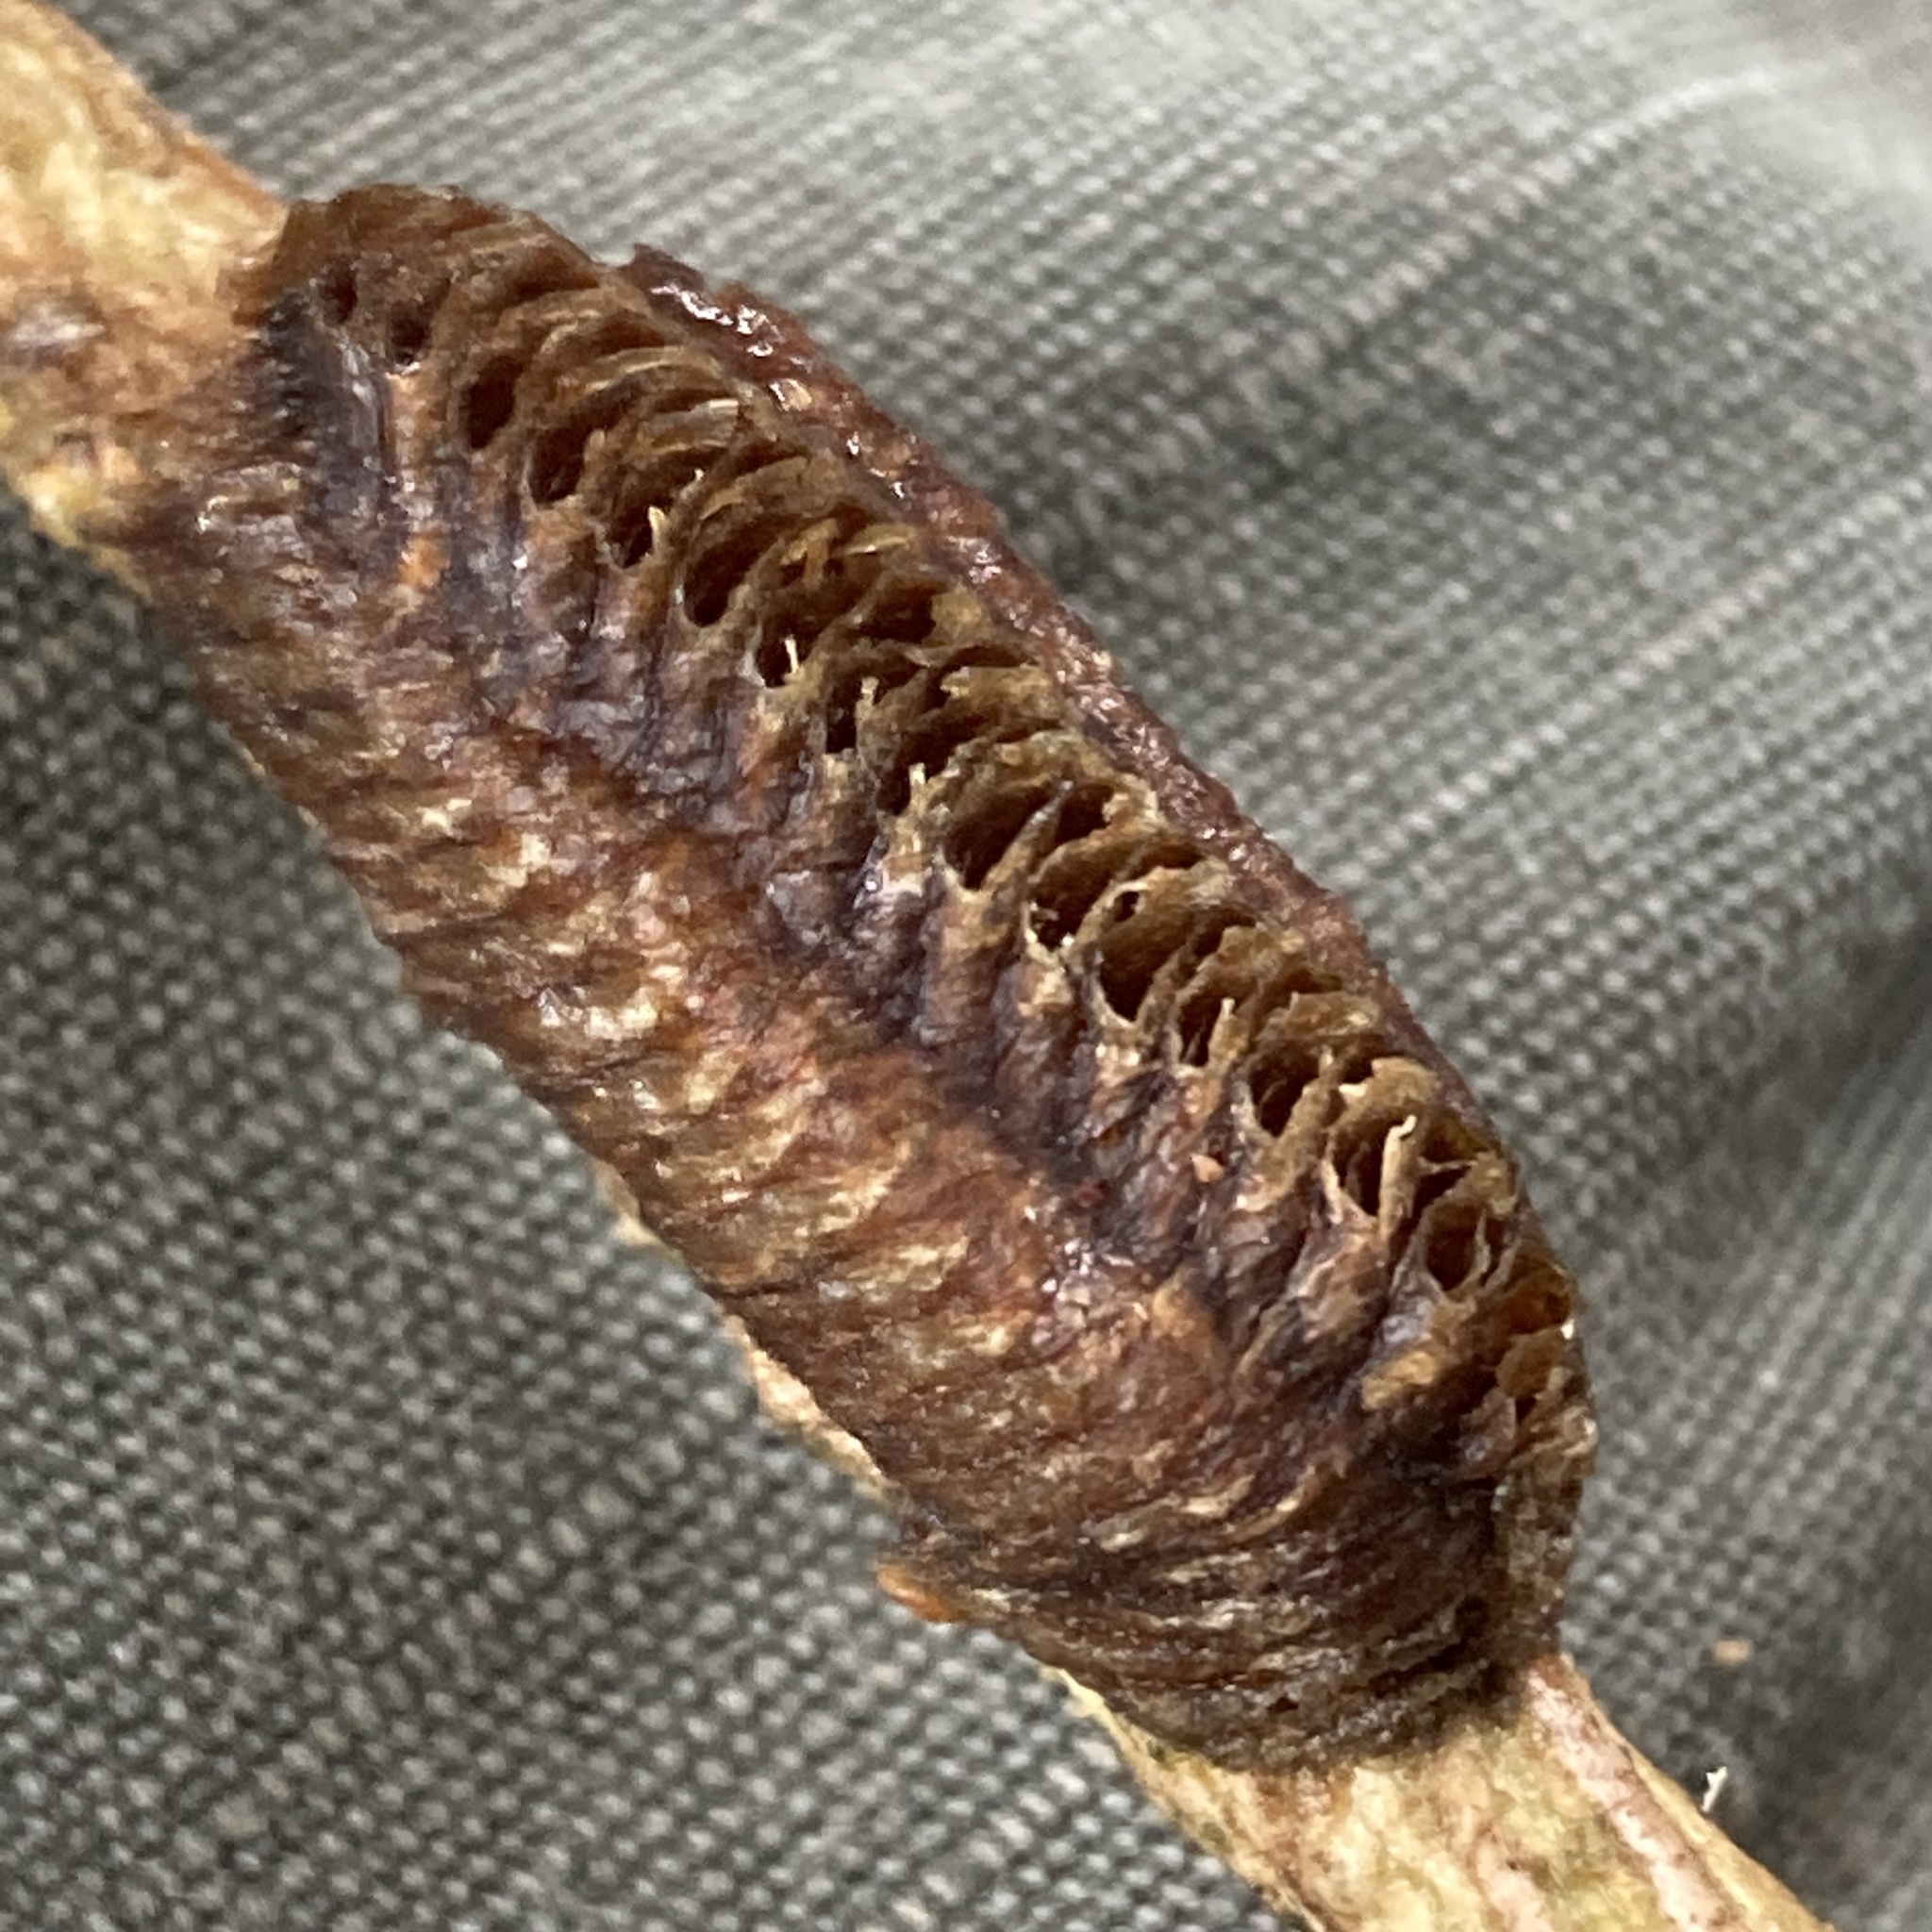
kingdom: Animalia
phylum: Arthropoda
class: Insecta
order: Mantodea
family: Mantidae
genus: Stagmomantis
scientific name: Stagmomantis carolina
